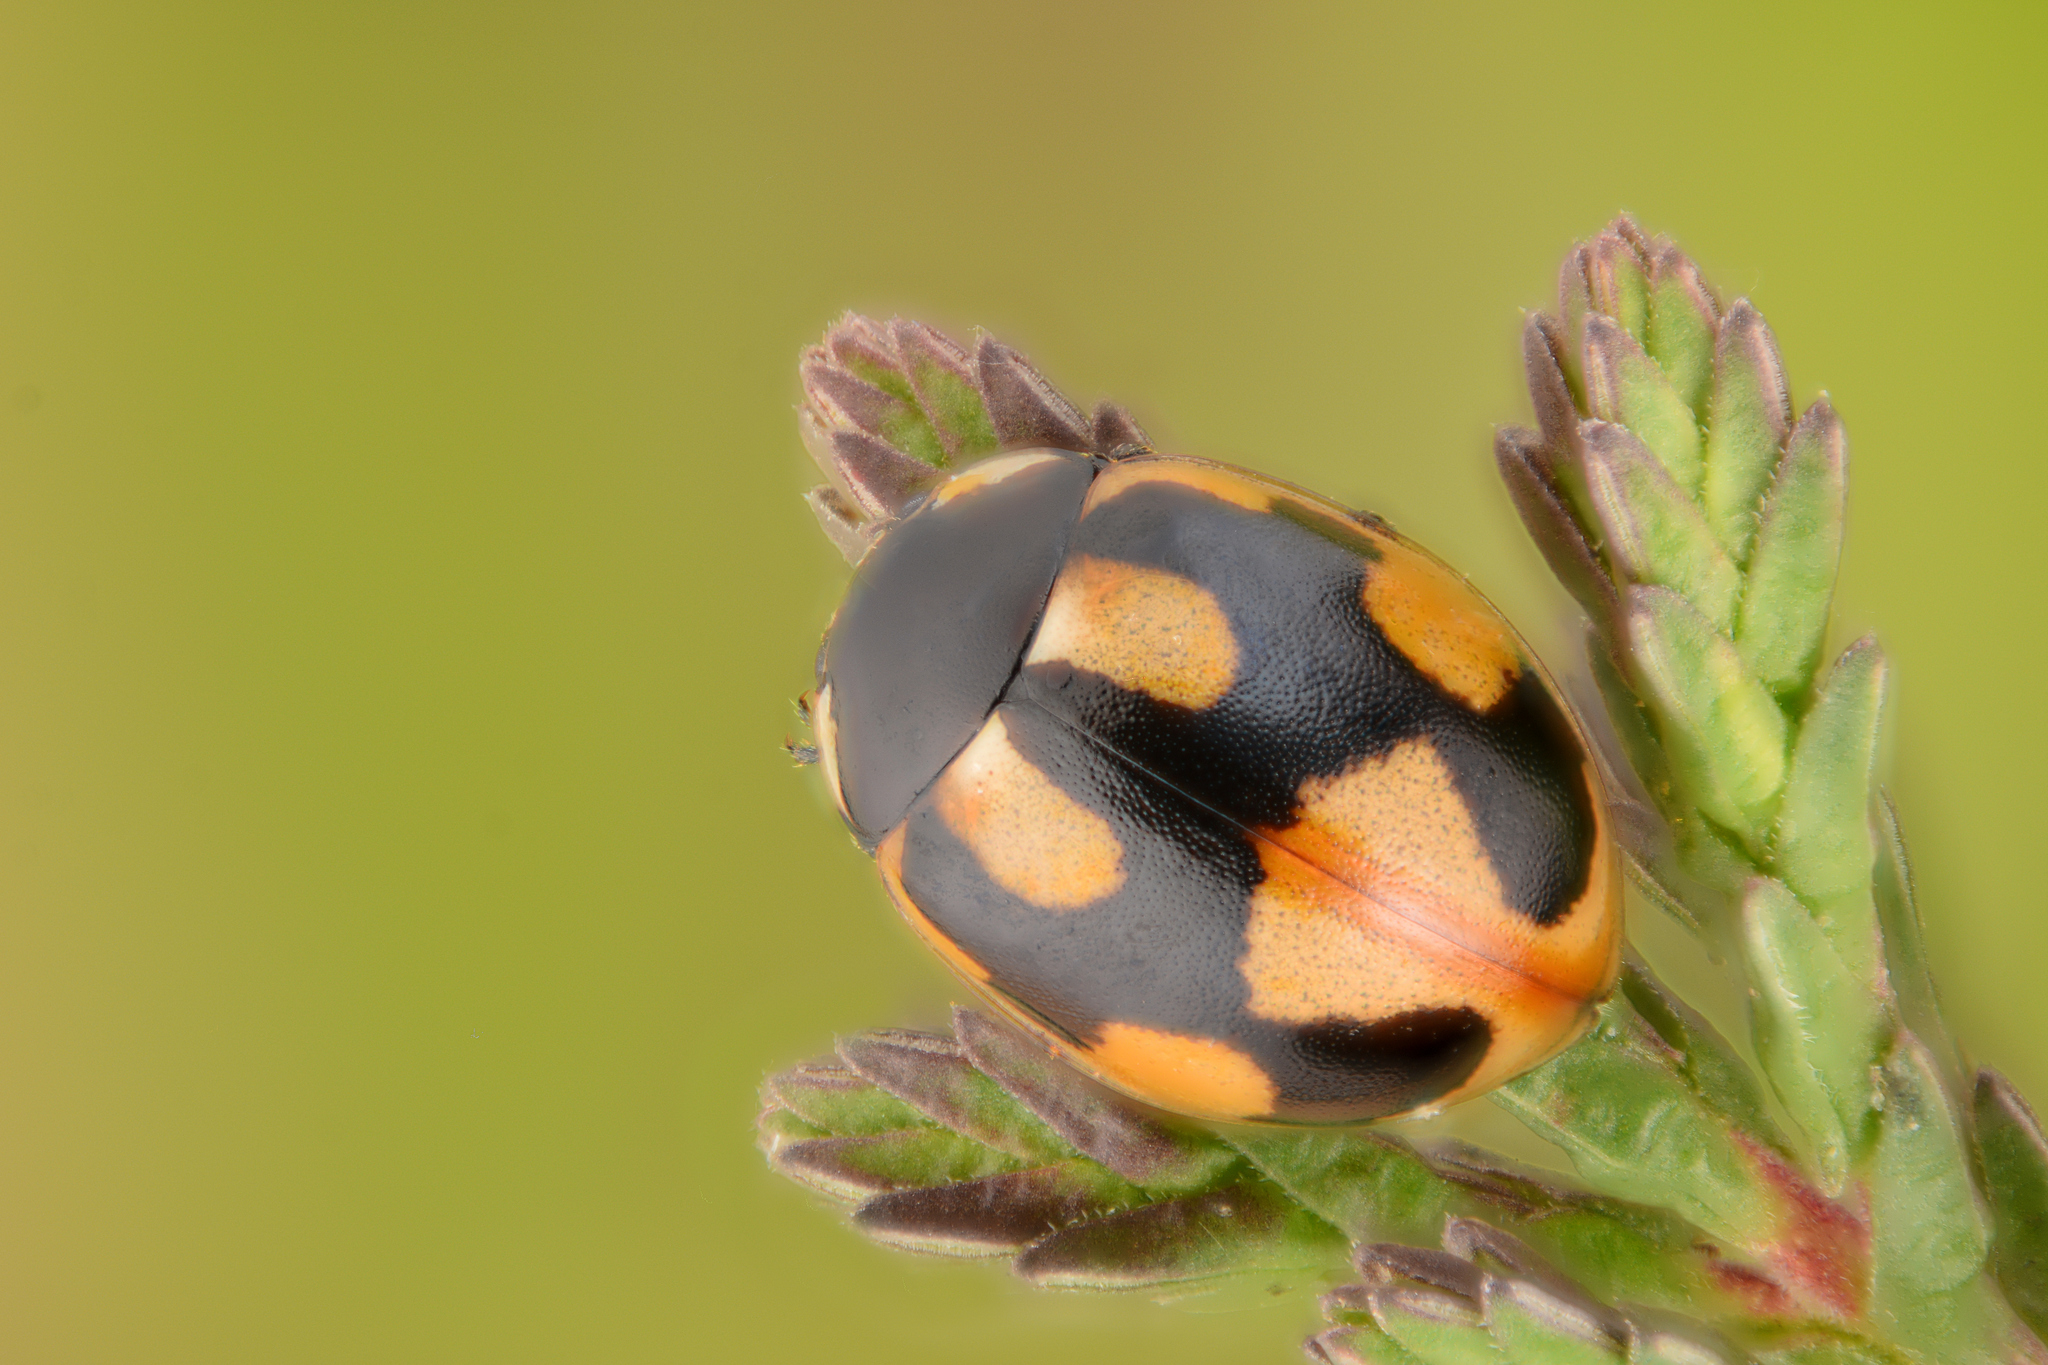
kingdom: Animalia
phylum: Arthropoda
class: Insecta
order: Coleoptera
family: Coccinellidae
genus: Coccinella
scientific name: Coccinella hieroglyphica
